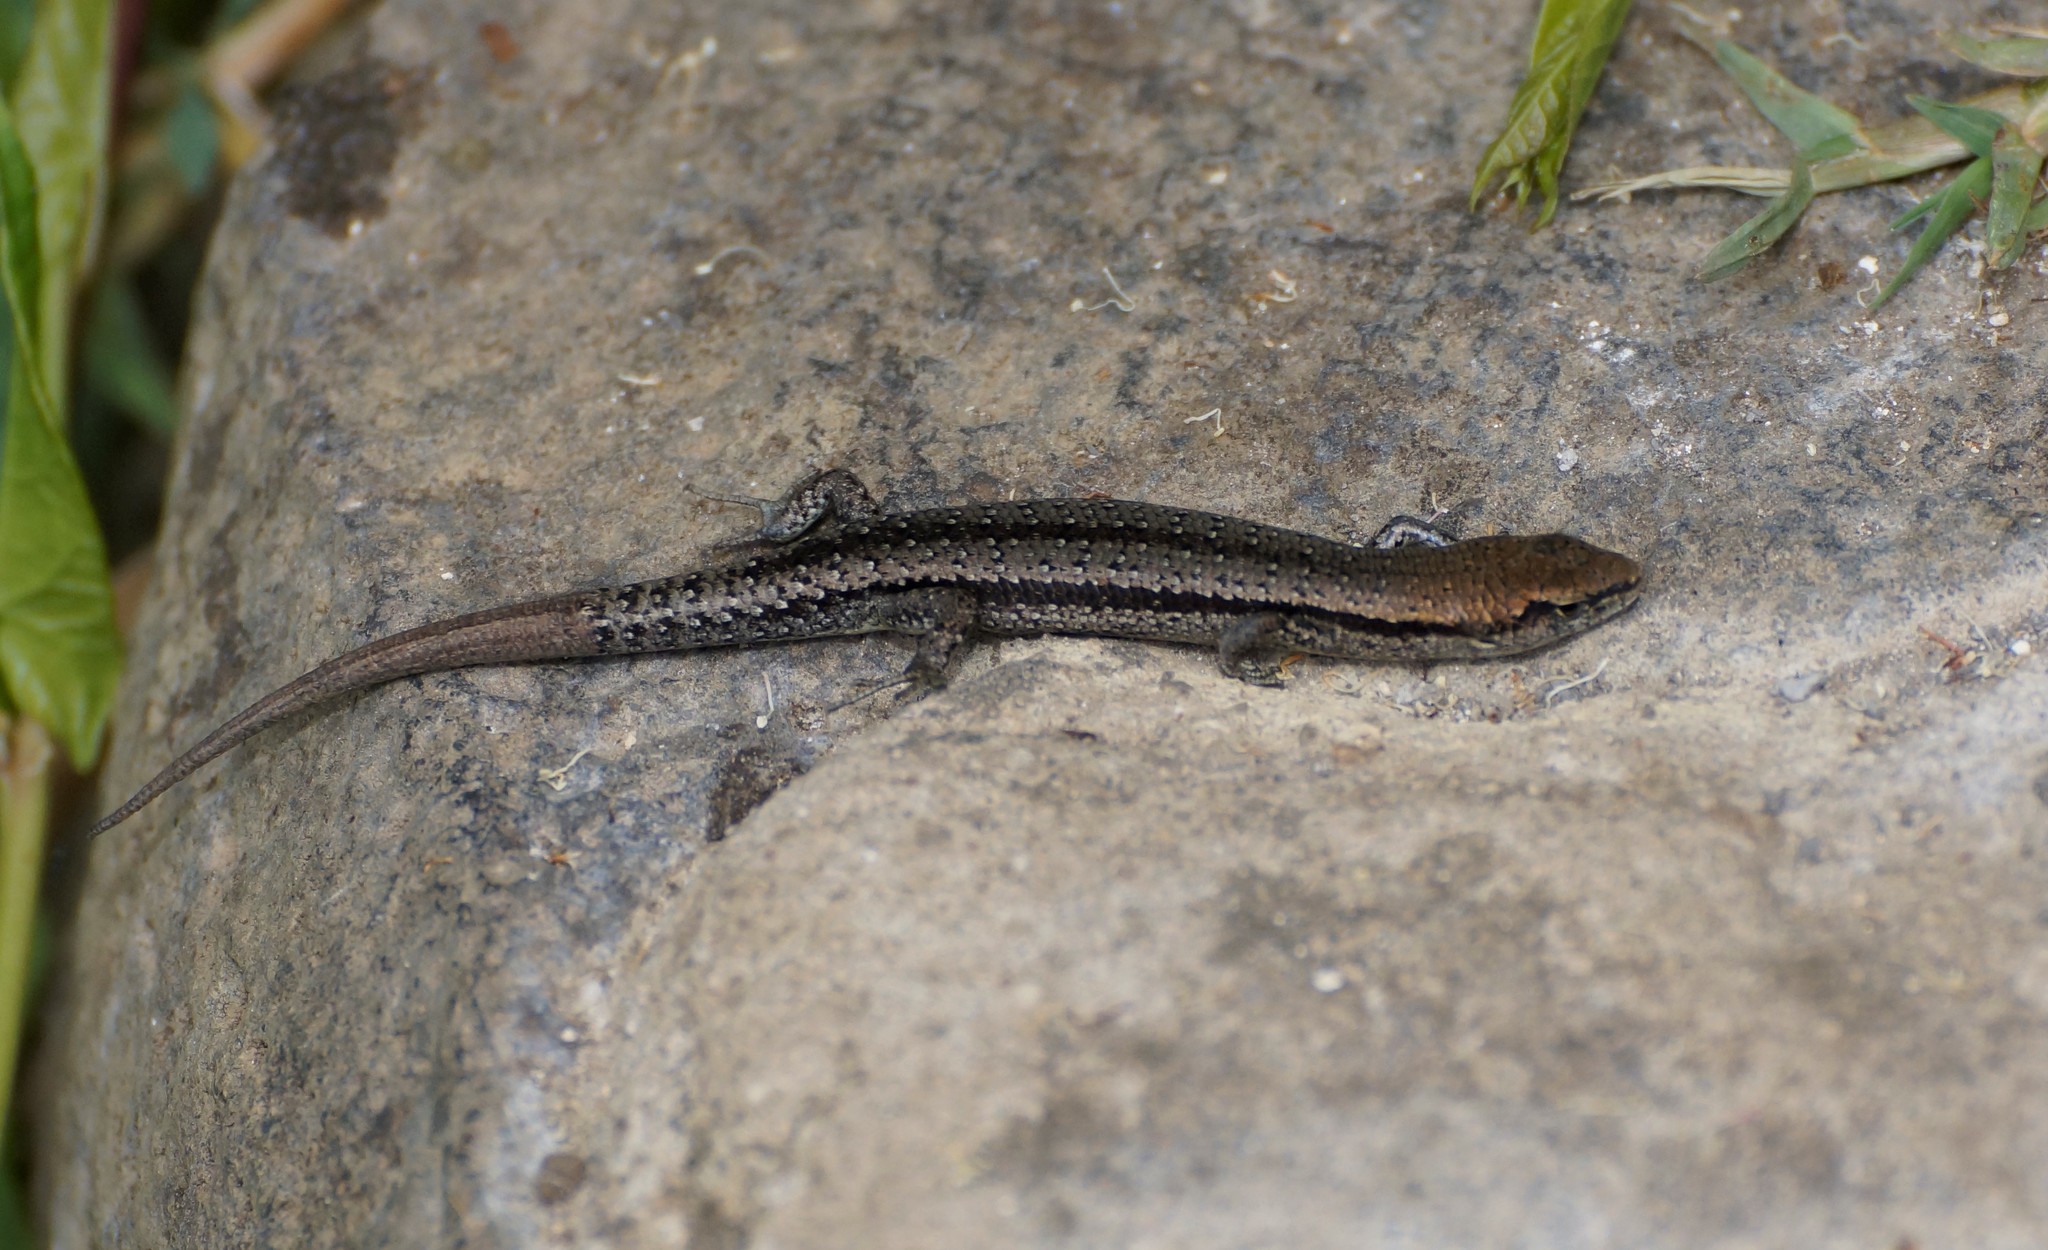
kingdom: Animalia
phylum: Chordata
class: Squamata
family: Scincidae
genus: Lampropholis
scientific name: Lampropholis guichenoti
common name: Garden skink
